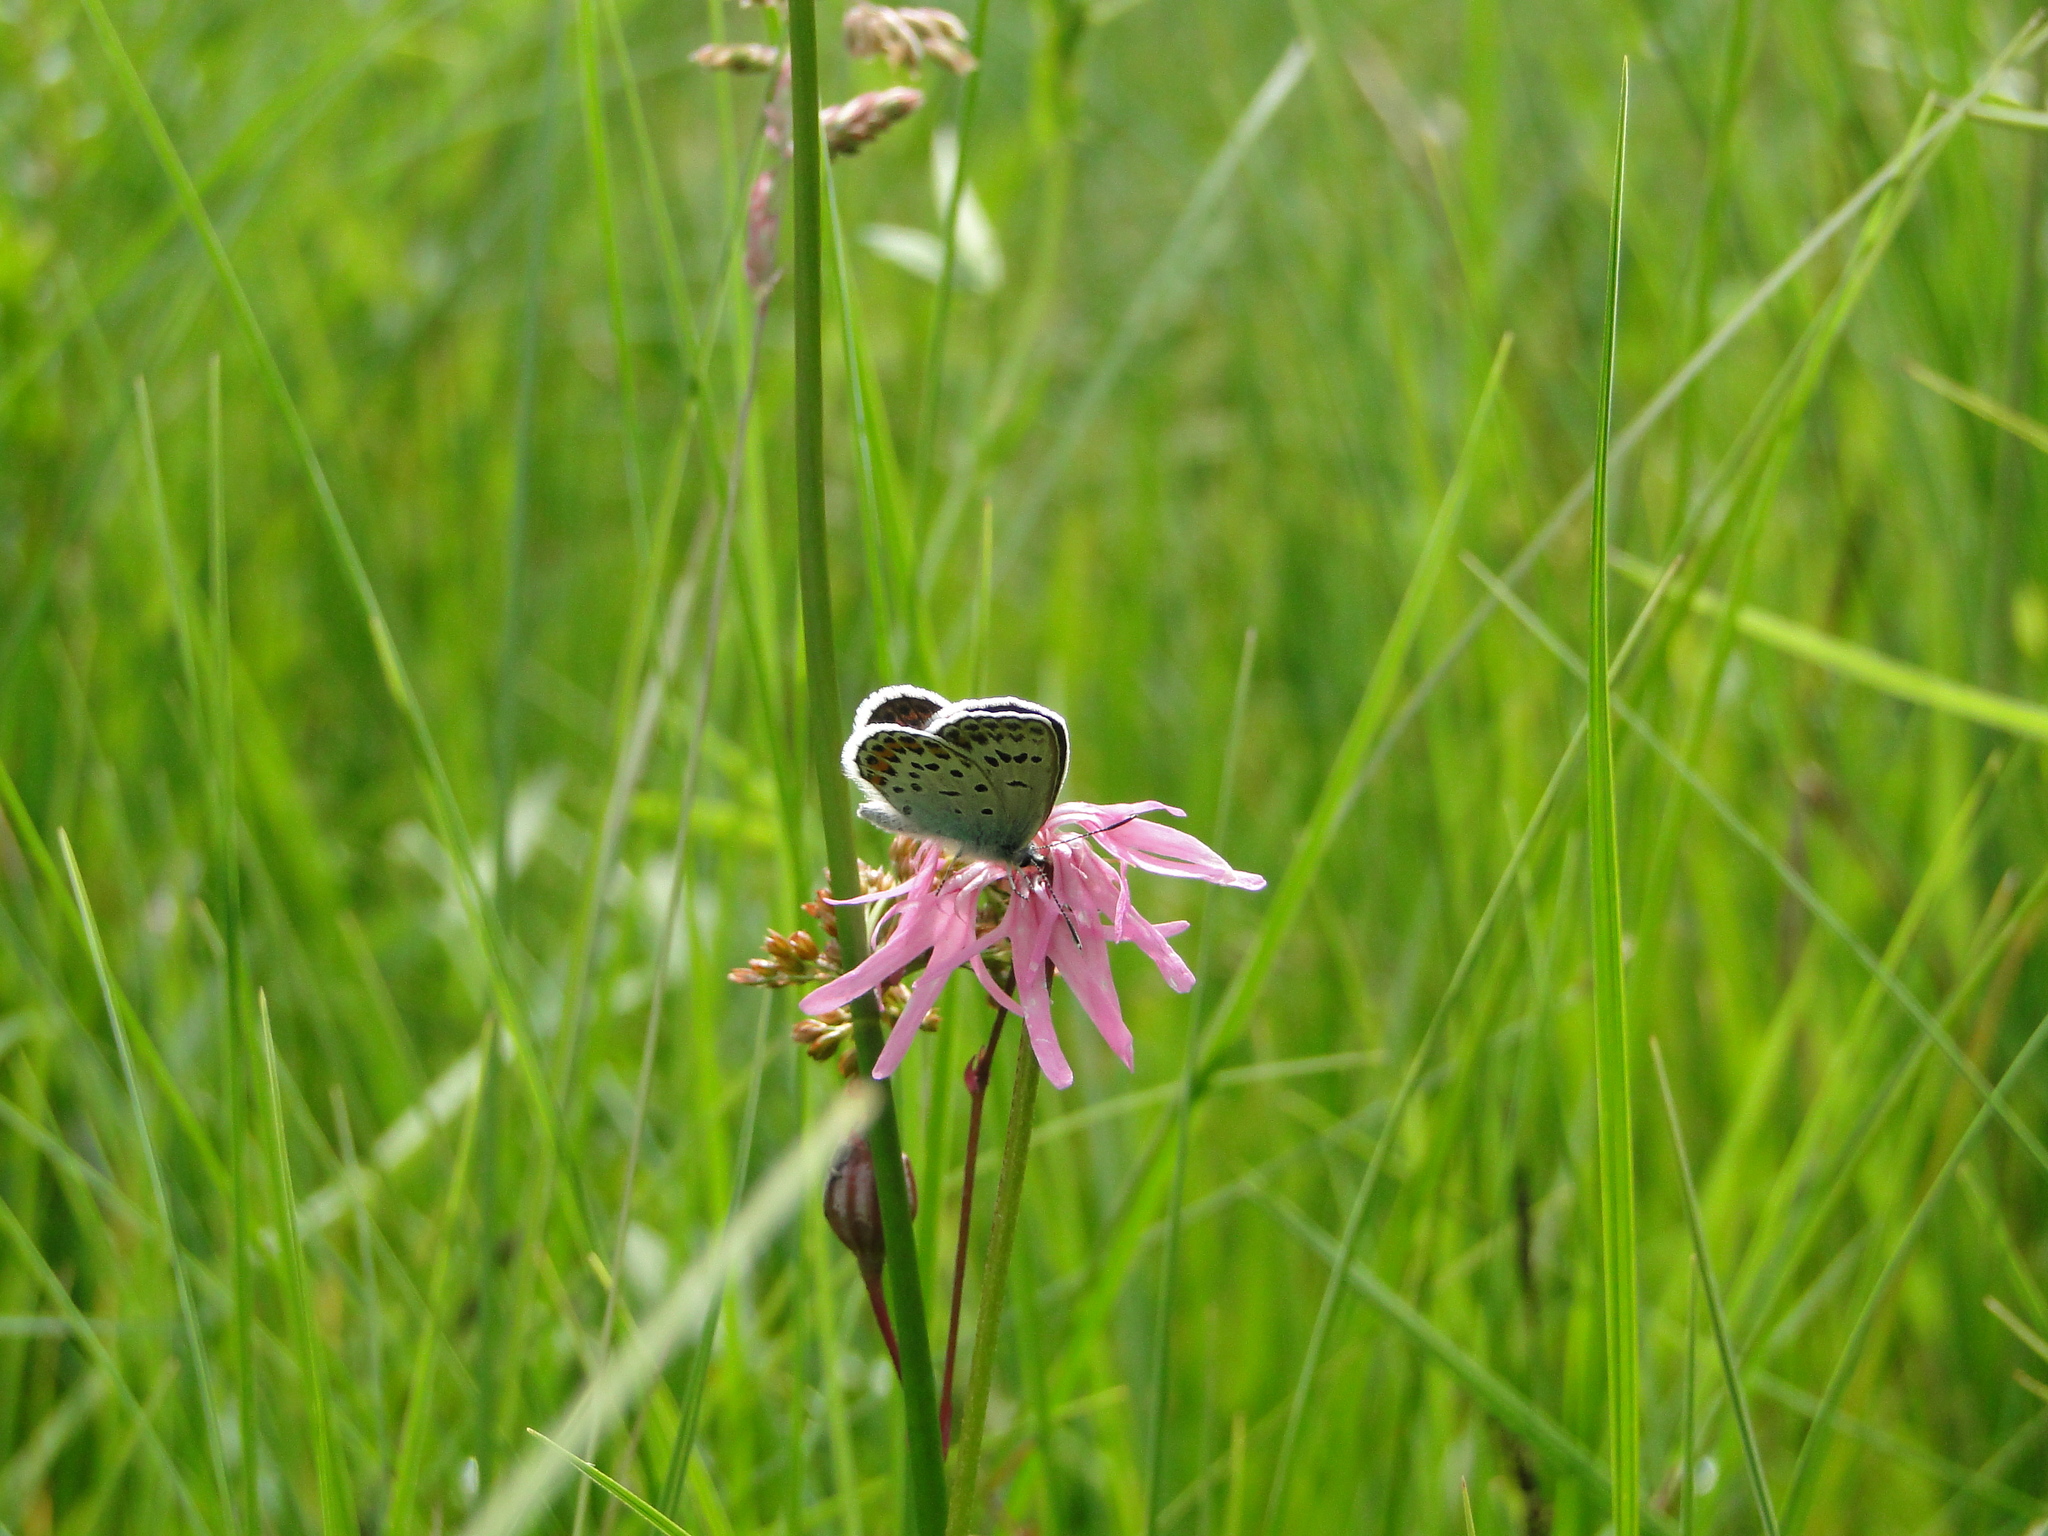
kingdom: Animalia
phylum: Arthropoda
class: Insecta
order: Lepidoptera
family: Lycaenidae
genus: Plebejus
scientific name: Plebejus argus
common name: Silver-studded blue
